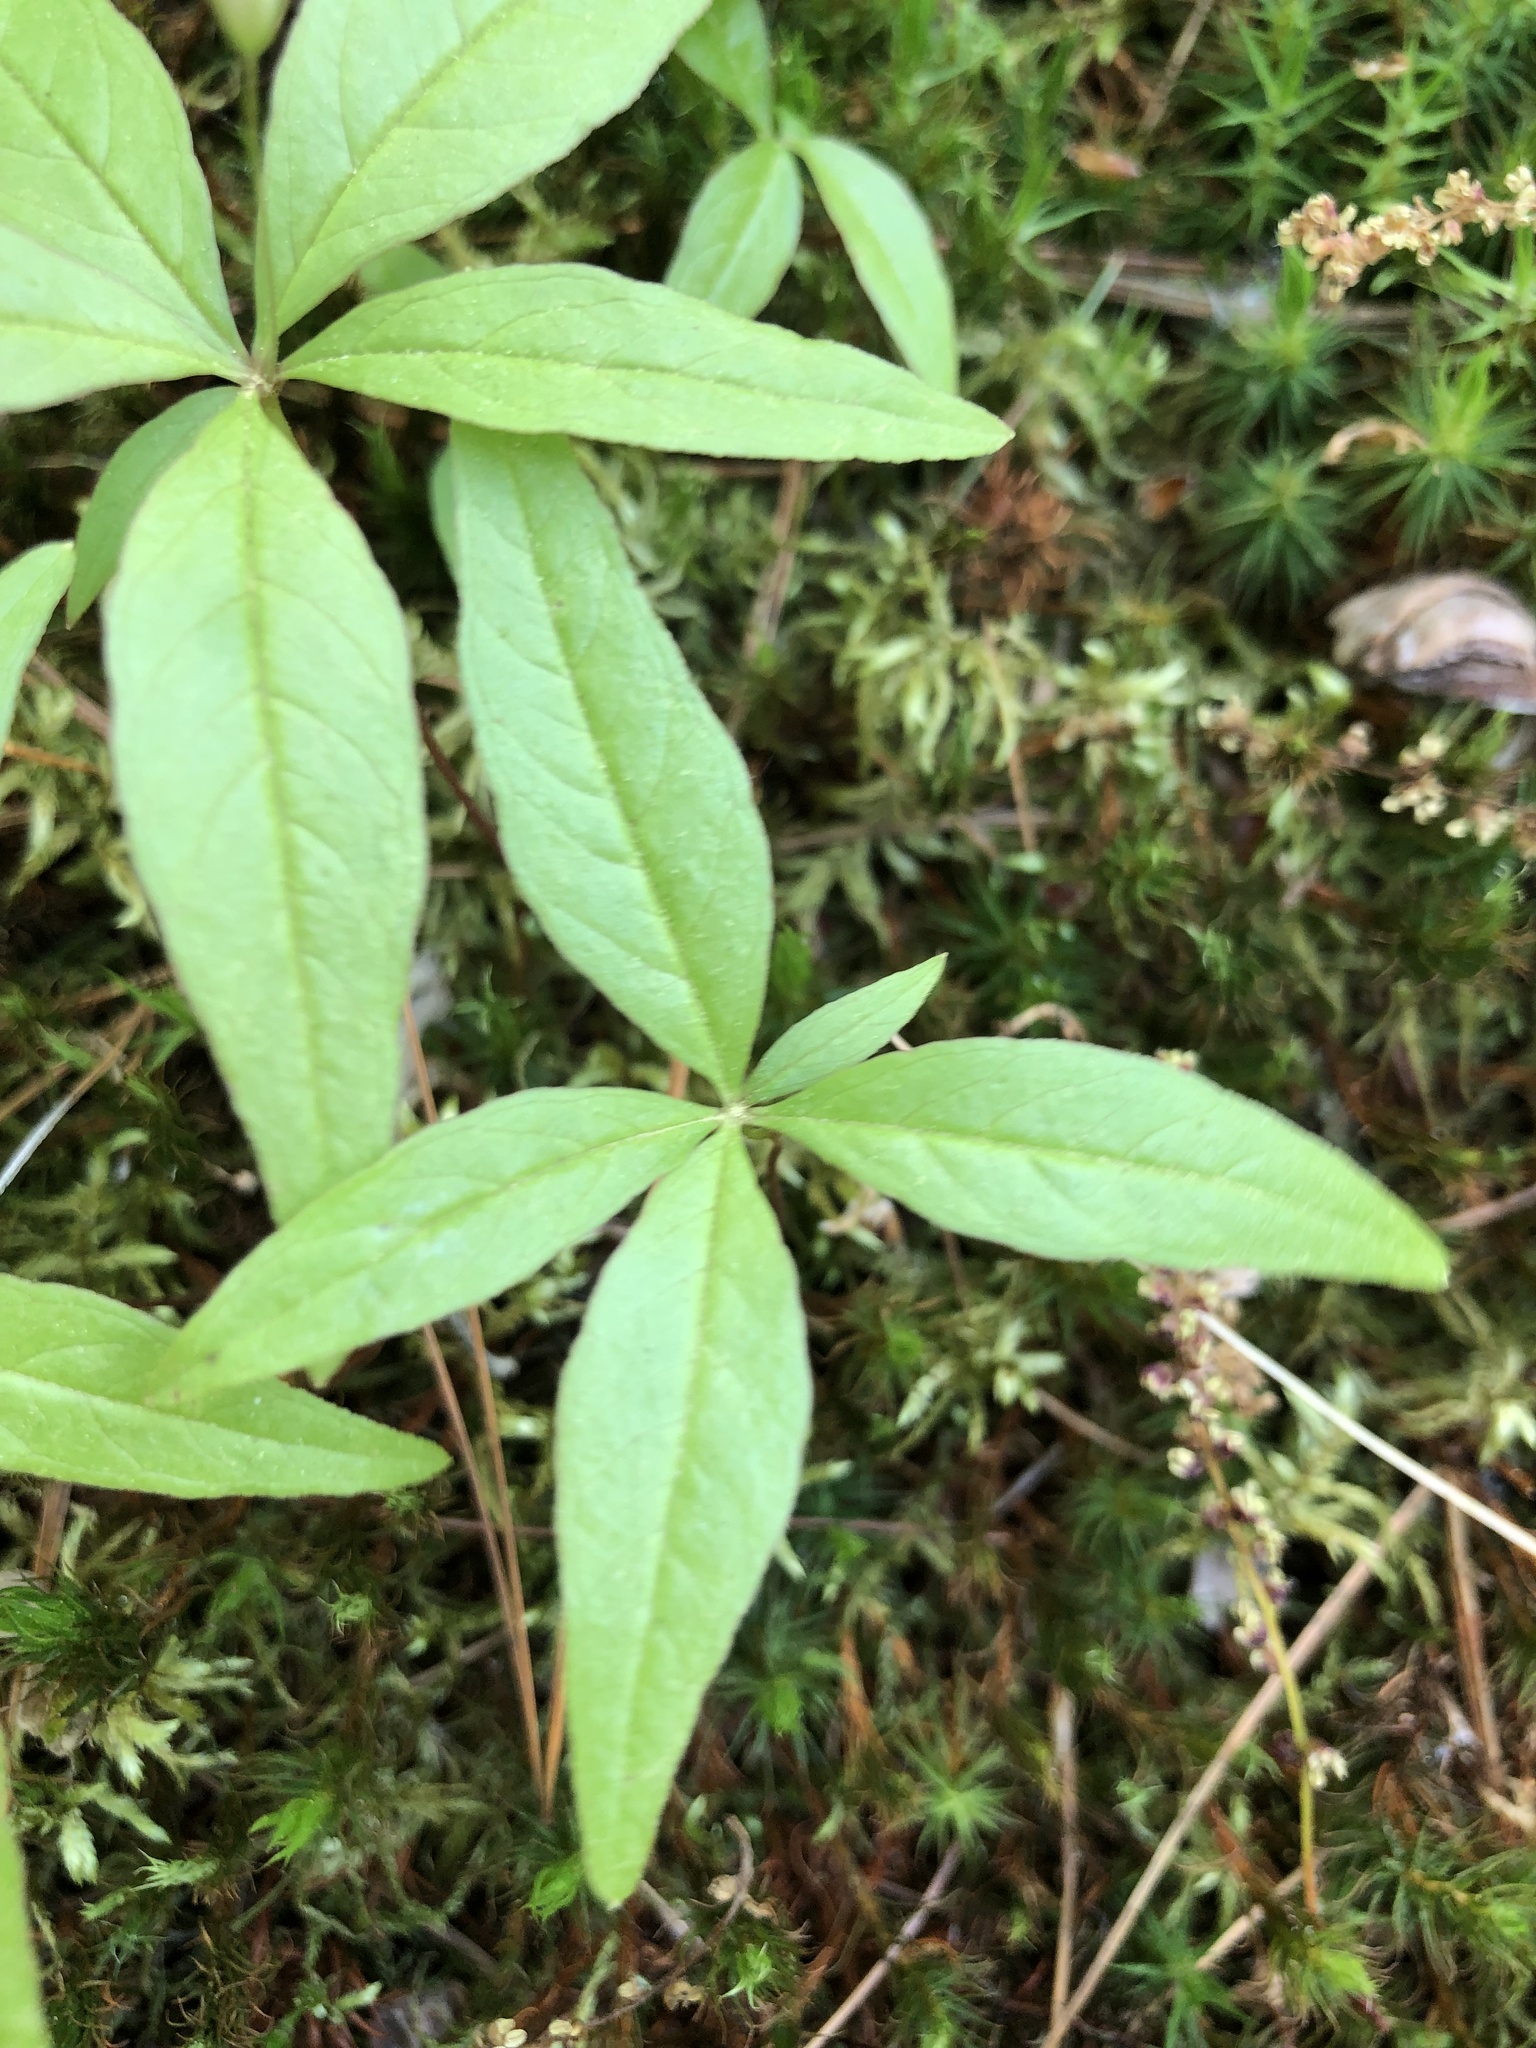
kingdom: Plantae
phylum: Tracheophyta
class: Magnoliopsida
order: Ericales
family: Primulaceae
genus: Lysimachia
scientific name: Lysimachia borealis
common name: American starflower
